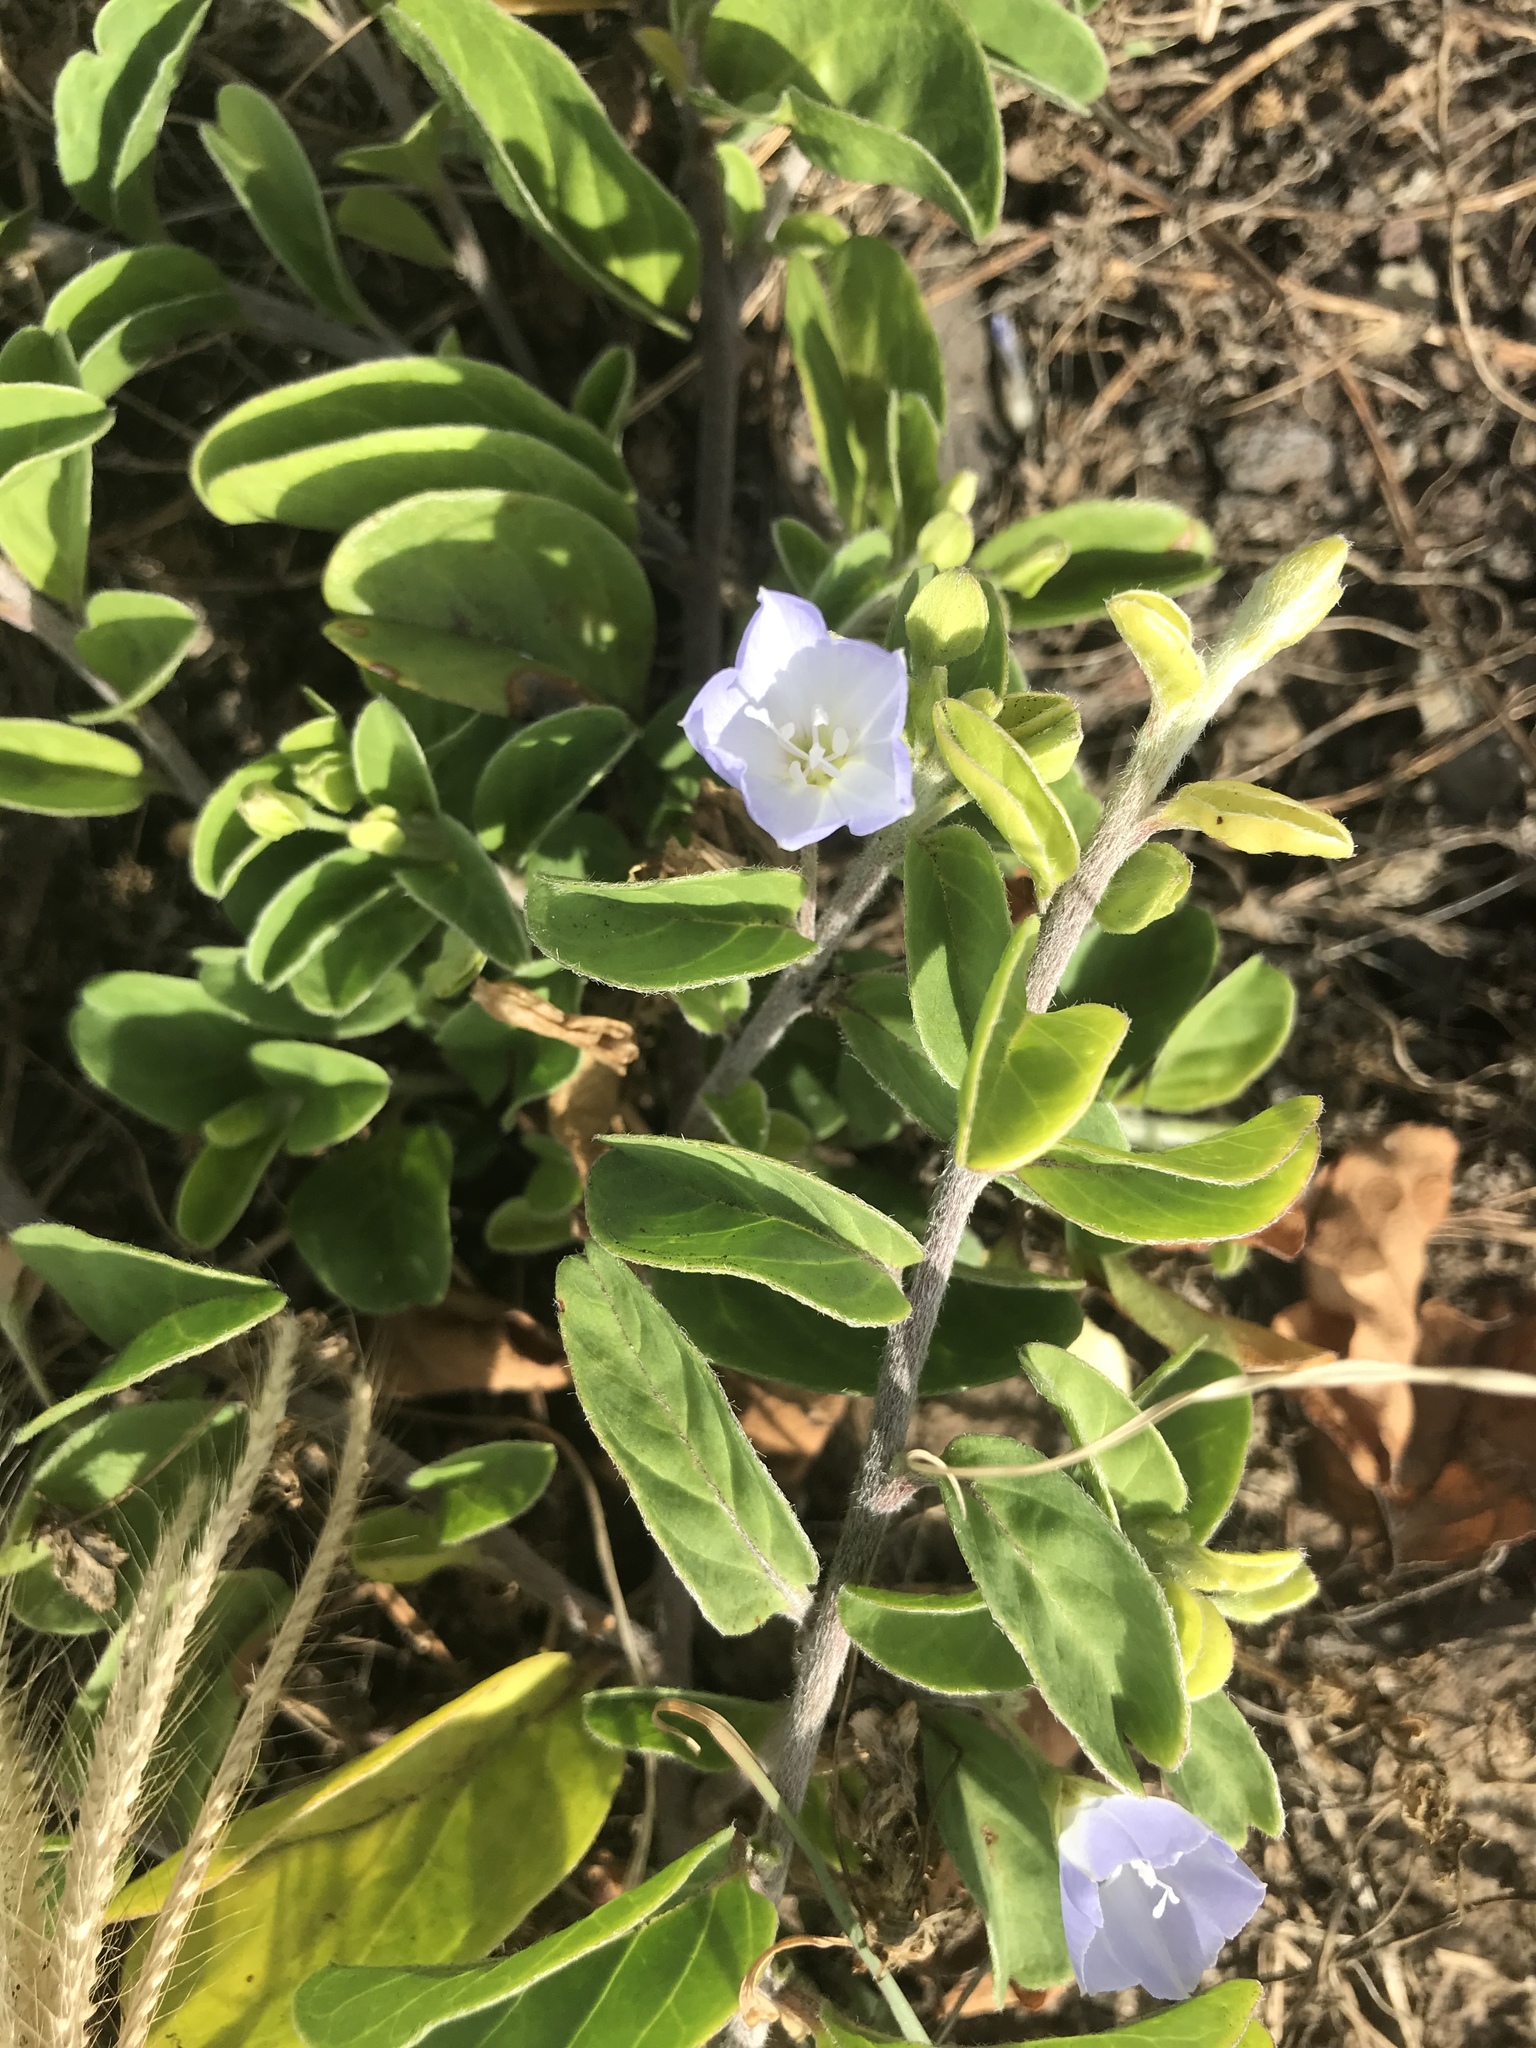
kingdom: Plantae
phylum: Tracheophyta
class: Magnoliopsida
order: Solanales
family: Convolvulaceae
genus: Jacquemontia
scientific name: Jacquemontia sandwicensis
